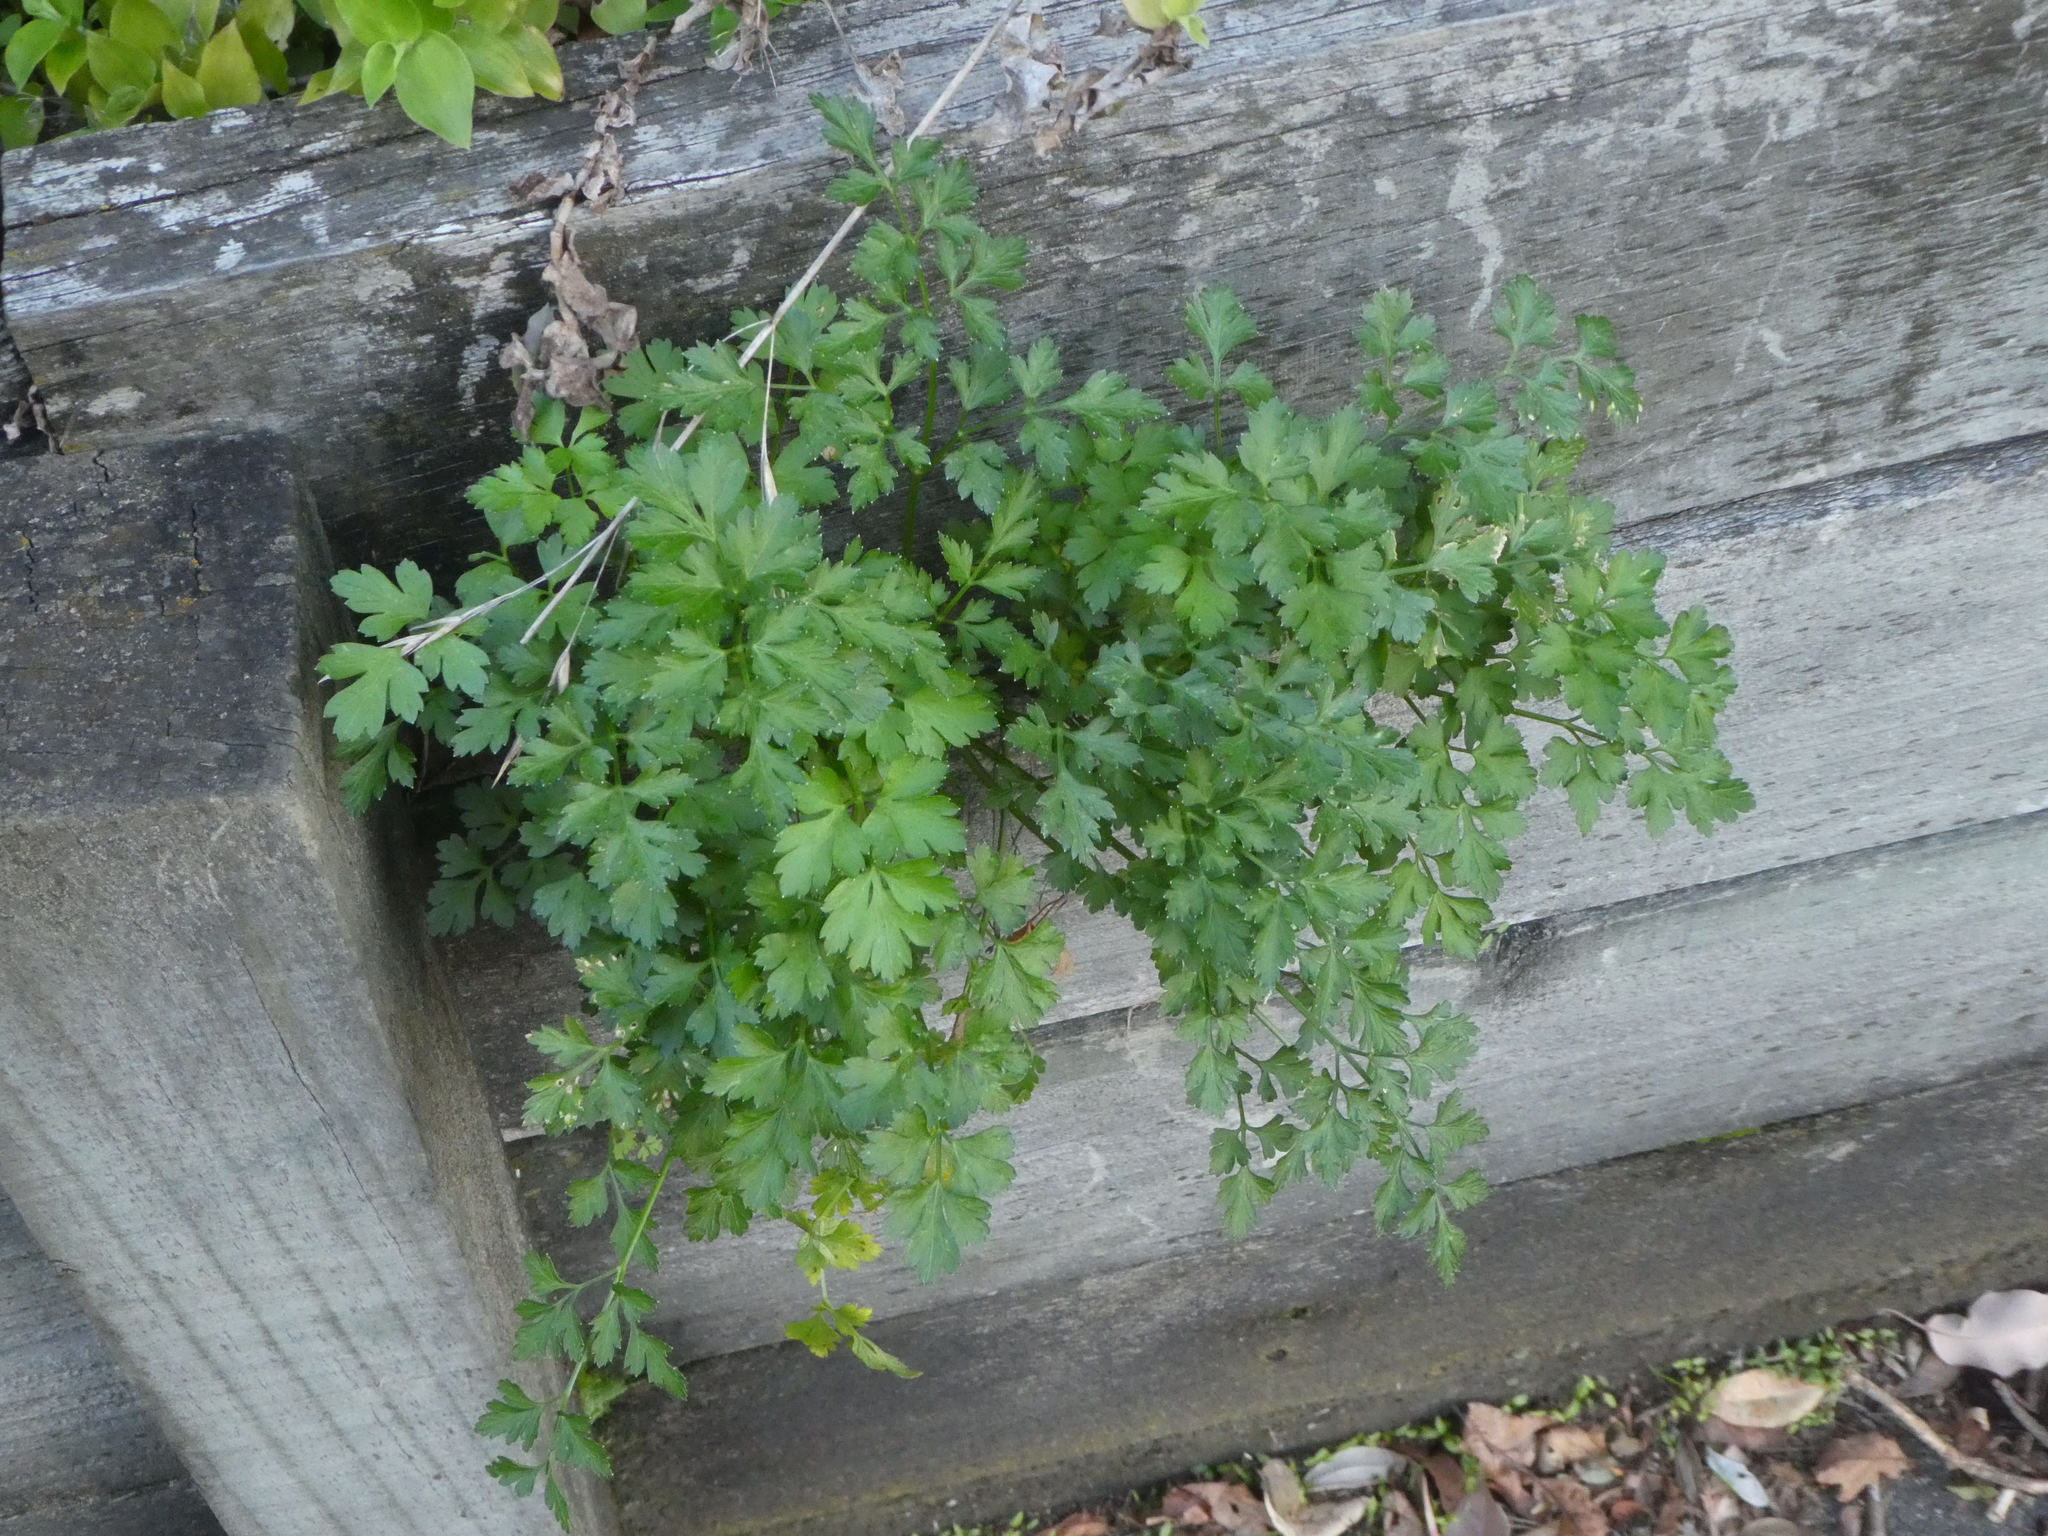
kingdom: Plantae
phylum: Tracheophyta
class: Magnoliopsida
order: Apiales
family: Apiaceae
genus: Petroselinum
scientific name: Petroselinum crispum
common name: Parsley
